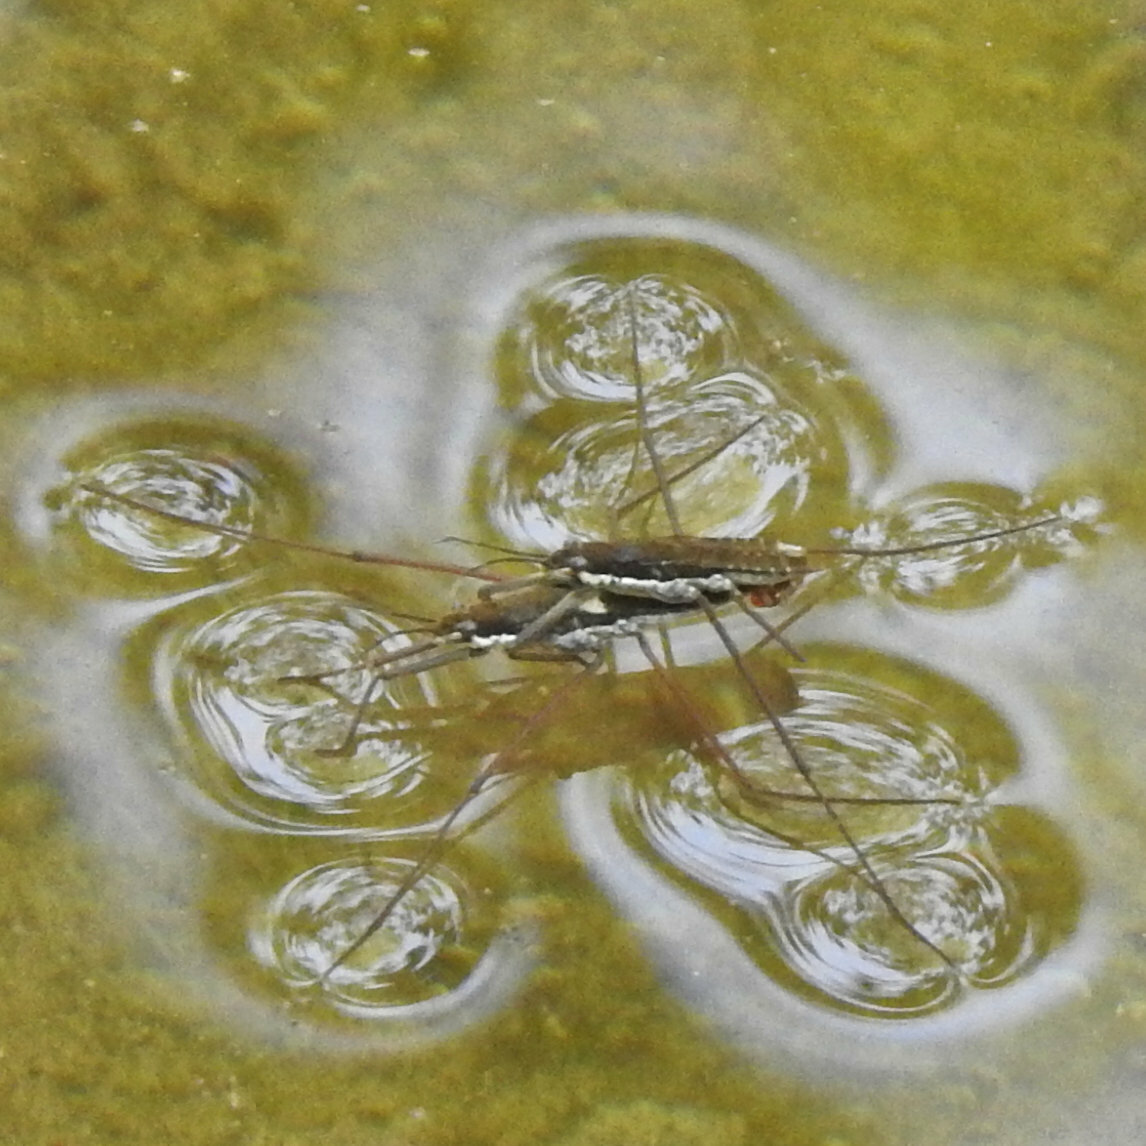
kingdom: Animalia
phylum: Arthropoda
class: Insecta
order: Hemiptera
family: Gerridae
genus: Aquarius
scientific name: Aquarius remigis
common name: Common water strider
